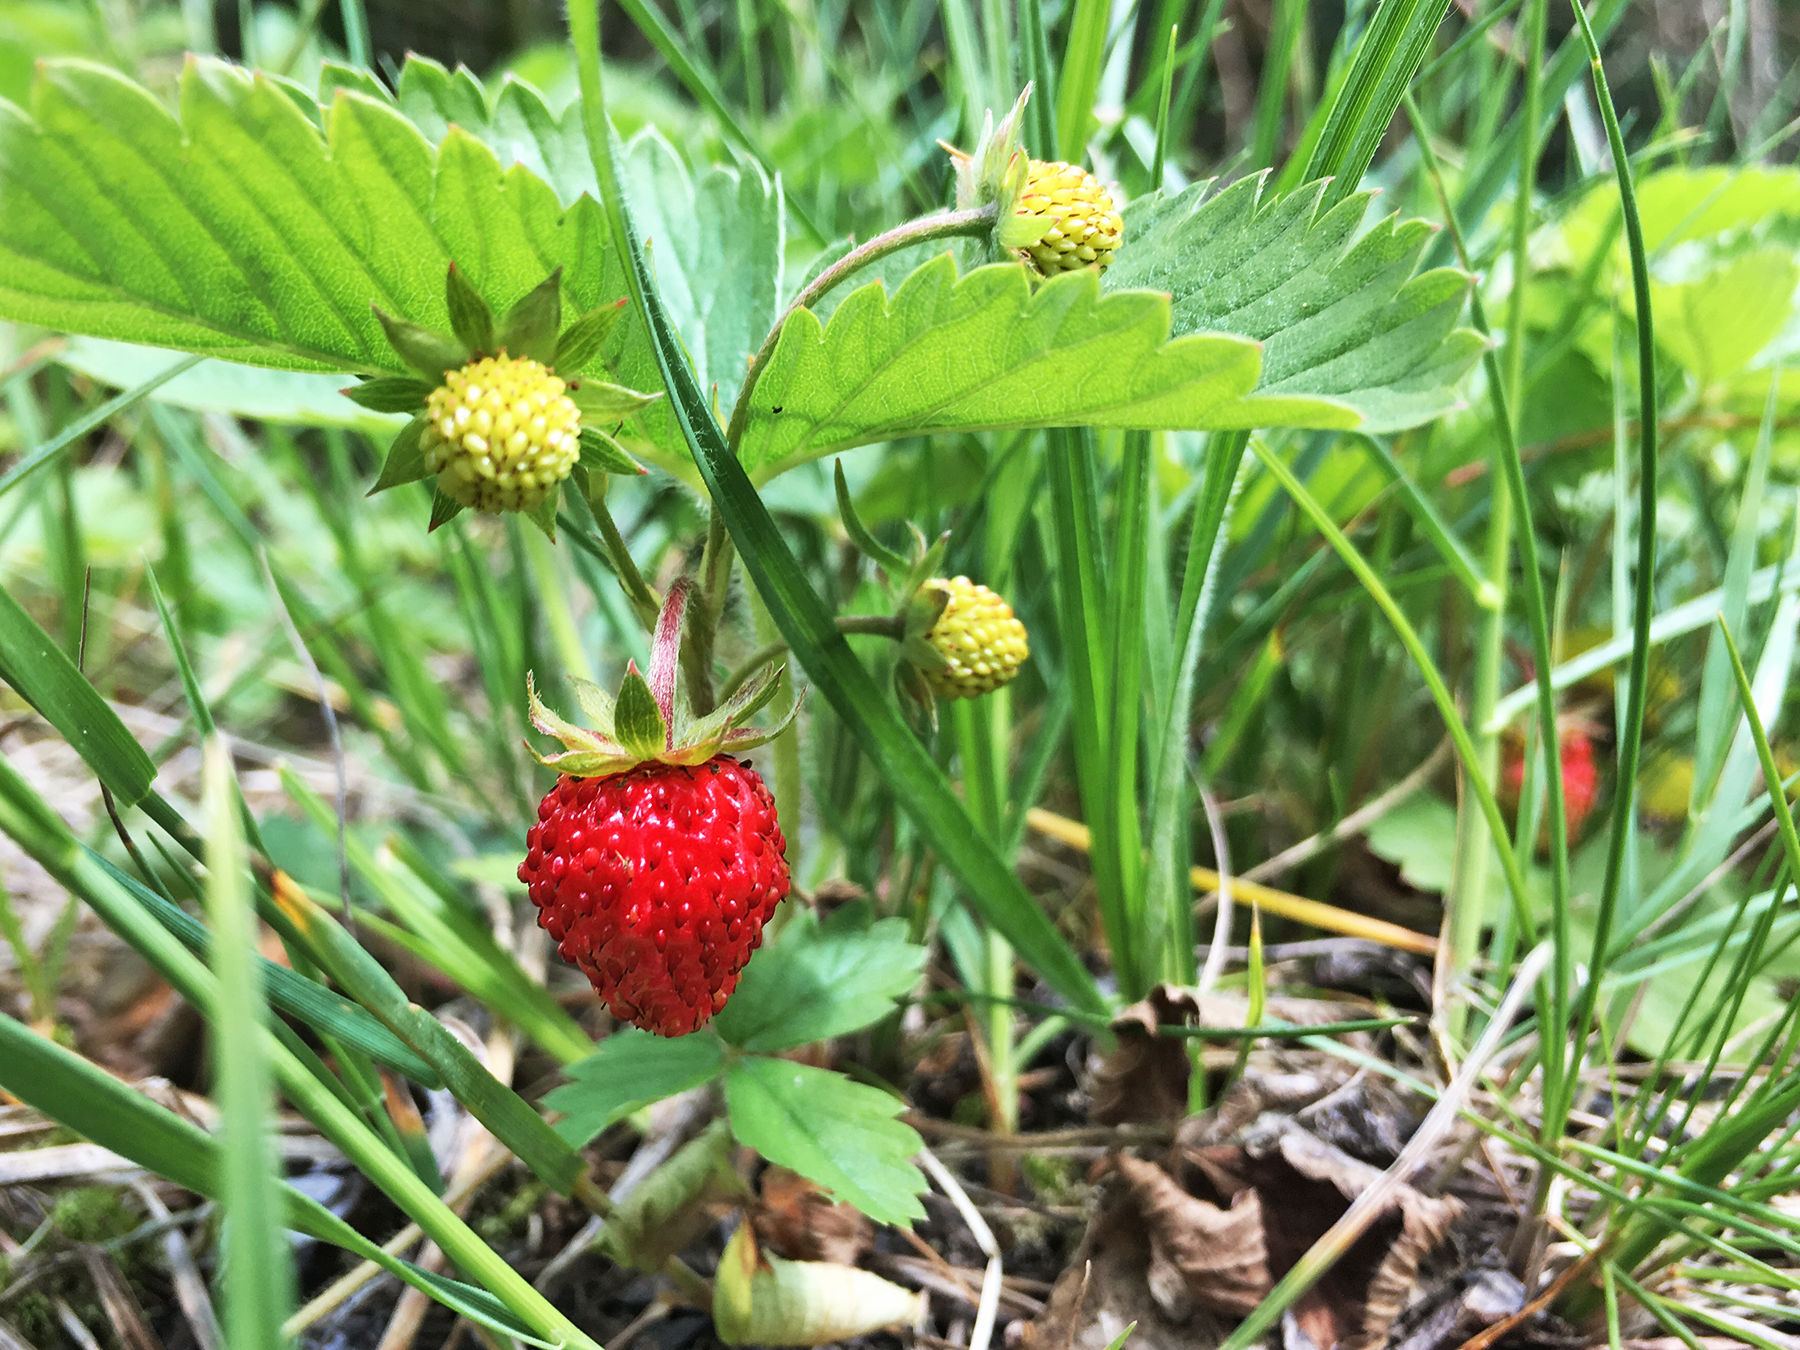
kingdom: Plantae
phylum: Tracheophyta
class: Magnoliopsida
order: Rosales
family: Rosaceae
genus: Fragaria
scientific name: Fragaria vesca
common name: Wild strawberry
